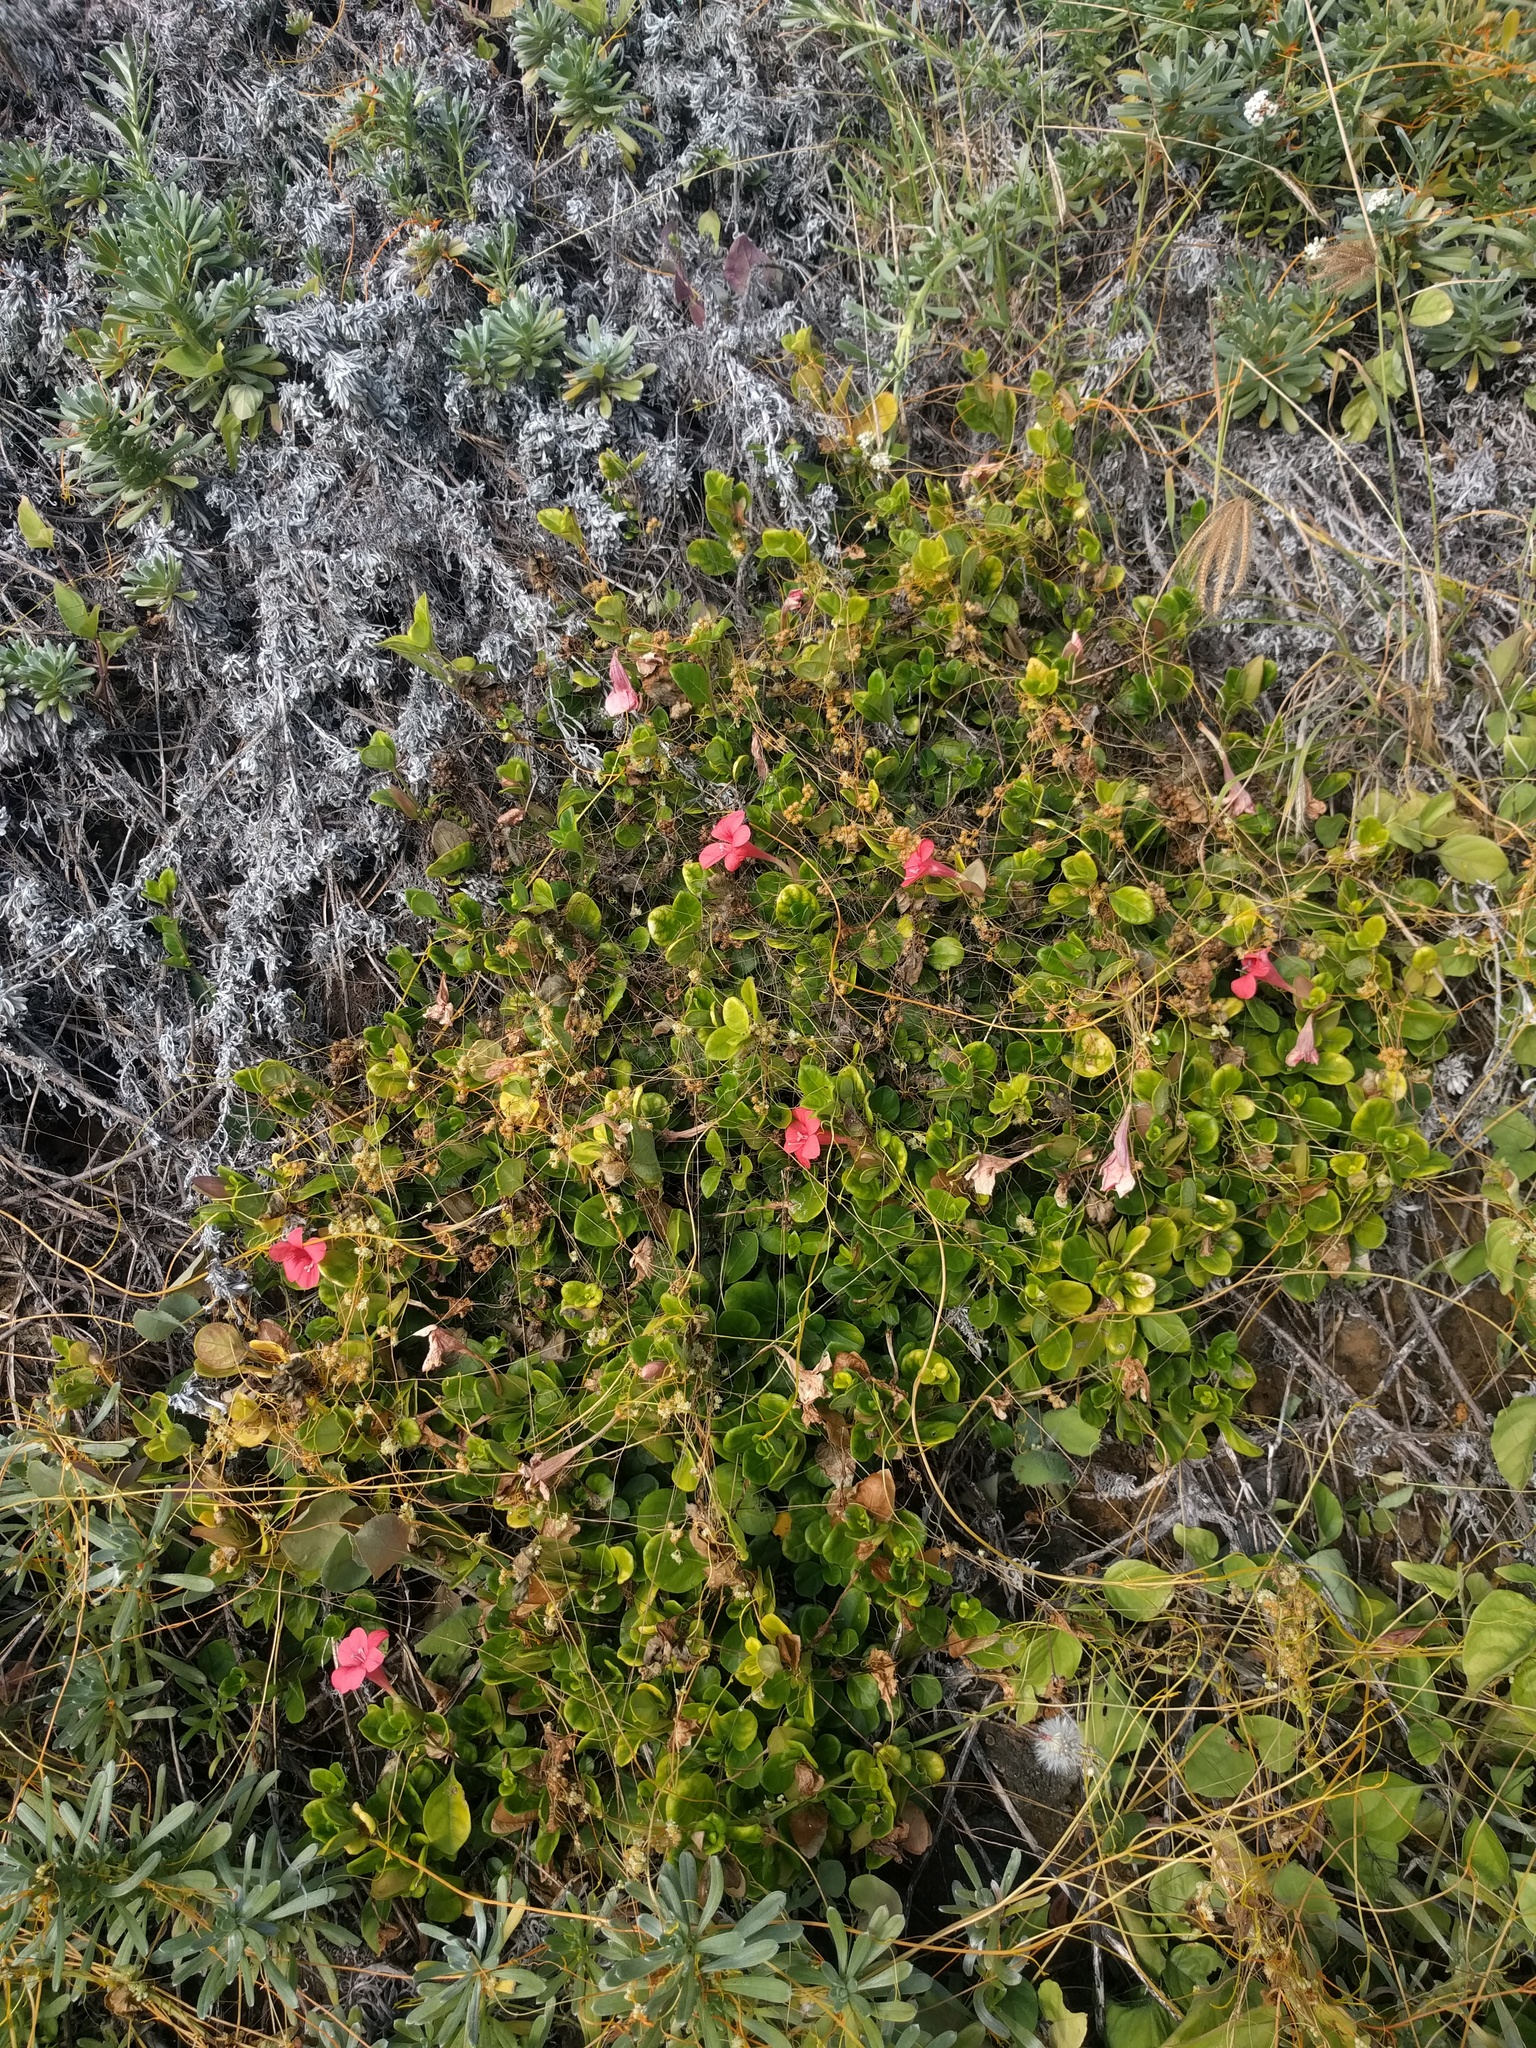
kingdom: Plantae
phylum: Tracheophyta
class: Magnoliopsida
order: Lamiales
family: Acanthaceae
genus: Barleria
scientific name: Barleria repens
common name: Pink-ruellia
